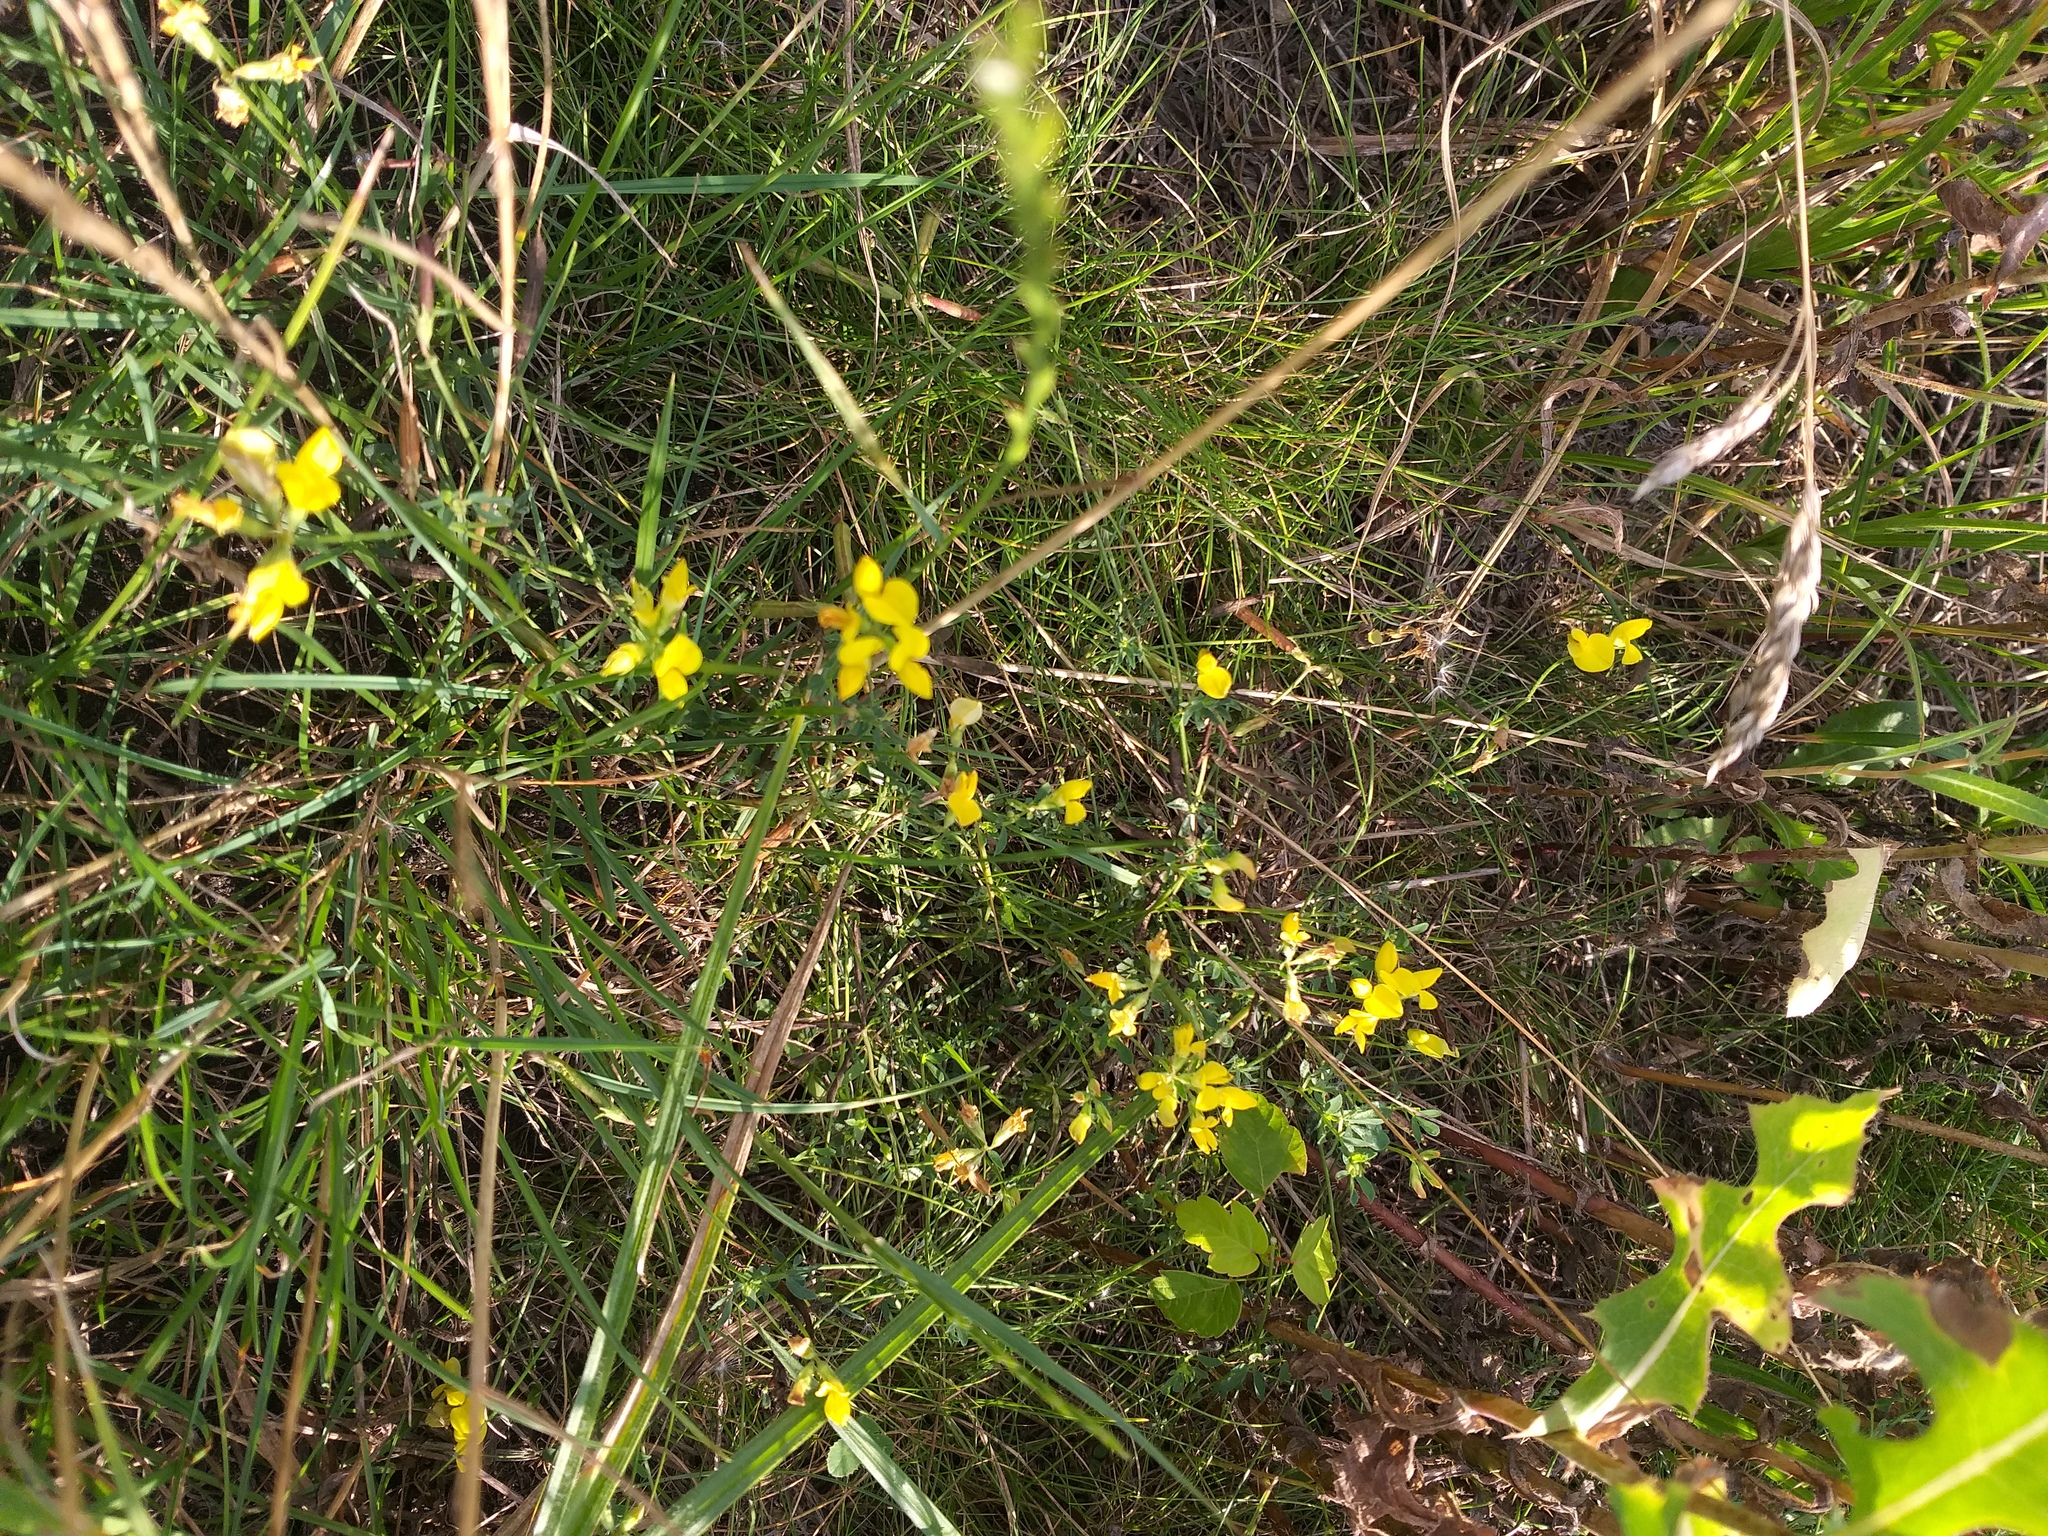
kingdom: Plantae
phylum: Tracheophyta
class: Magnoliopsida
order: Fabales
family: Fabaceae
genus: Lotus
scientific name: Lotus corniculatus
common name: Common bird's-foot-trefoil
